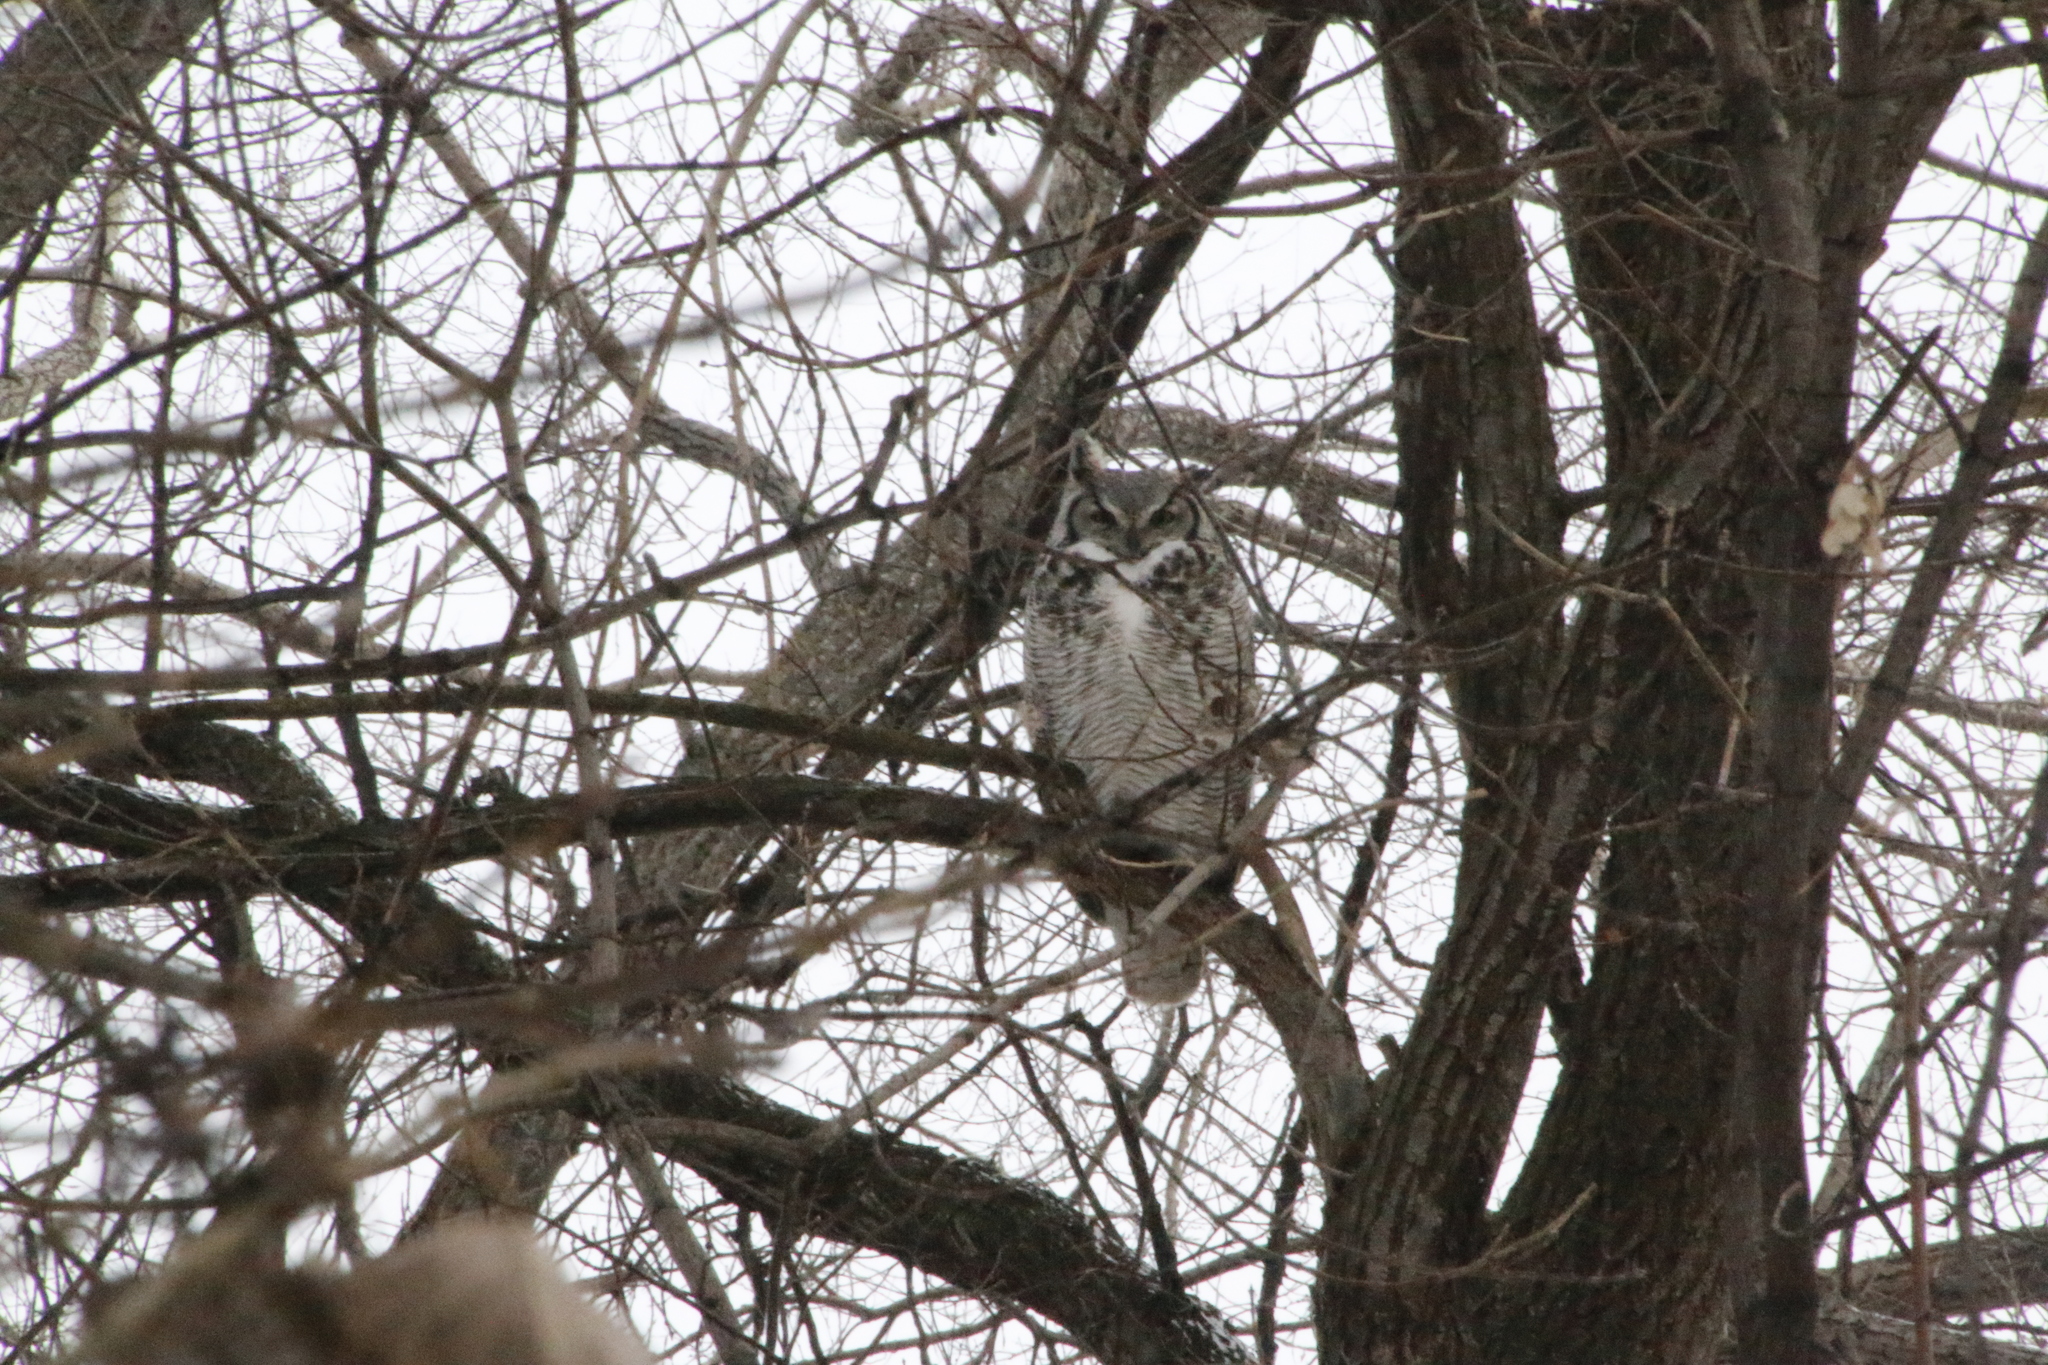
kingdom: Animalia
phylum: Chordata
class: Aves
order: Strigiformes
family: Strigidae
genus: Bubo
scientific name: Bubo virginianus
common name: Great horned owl
